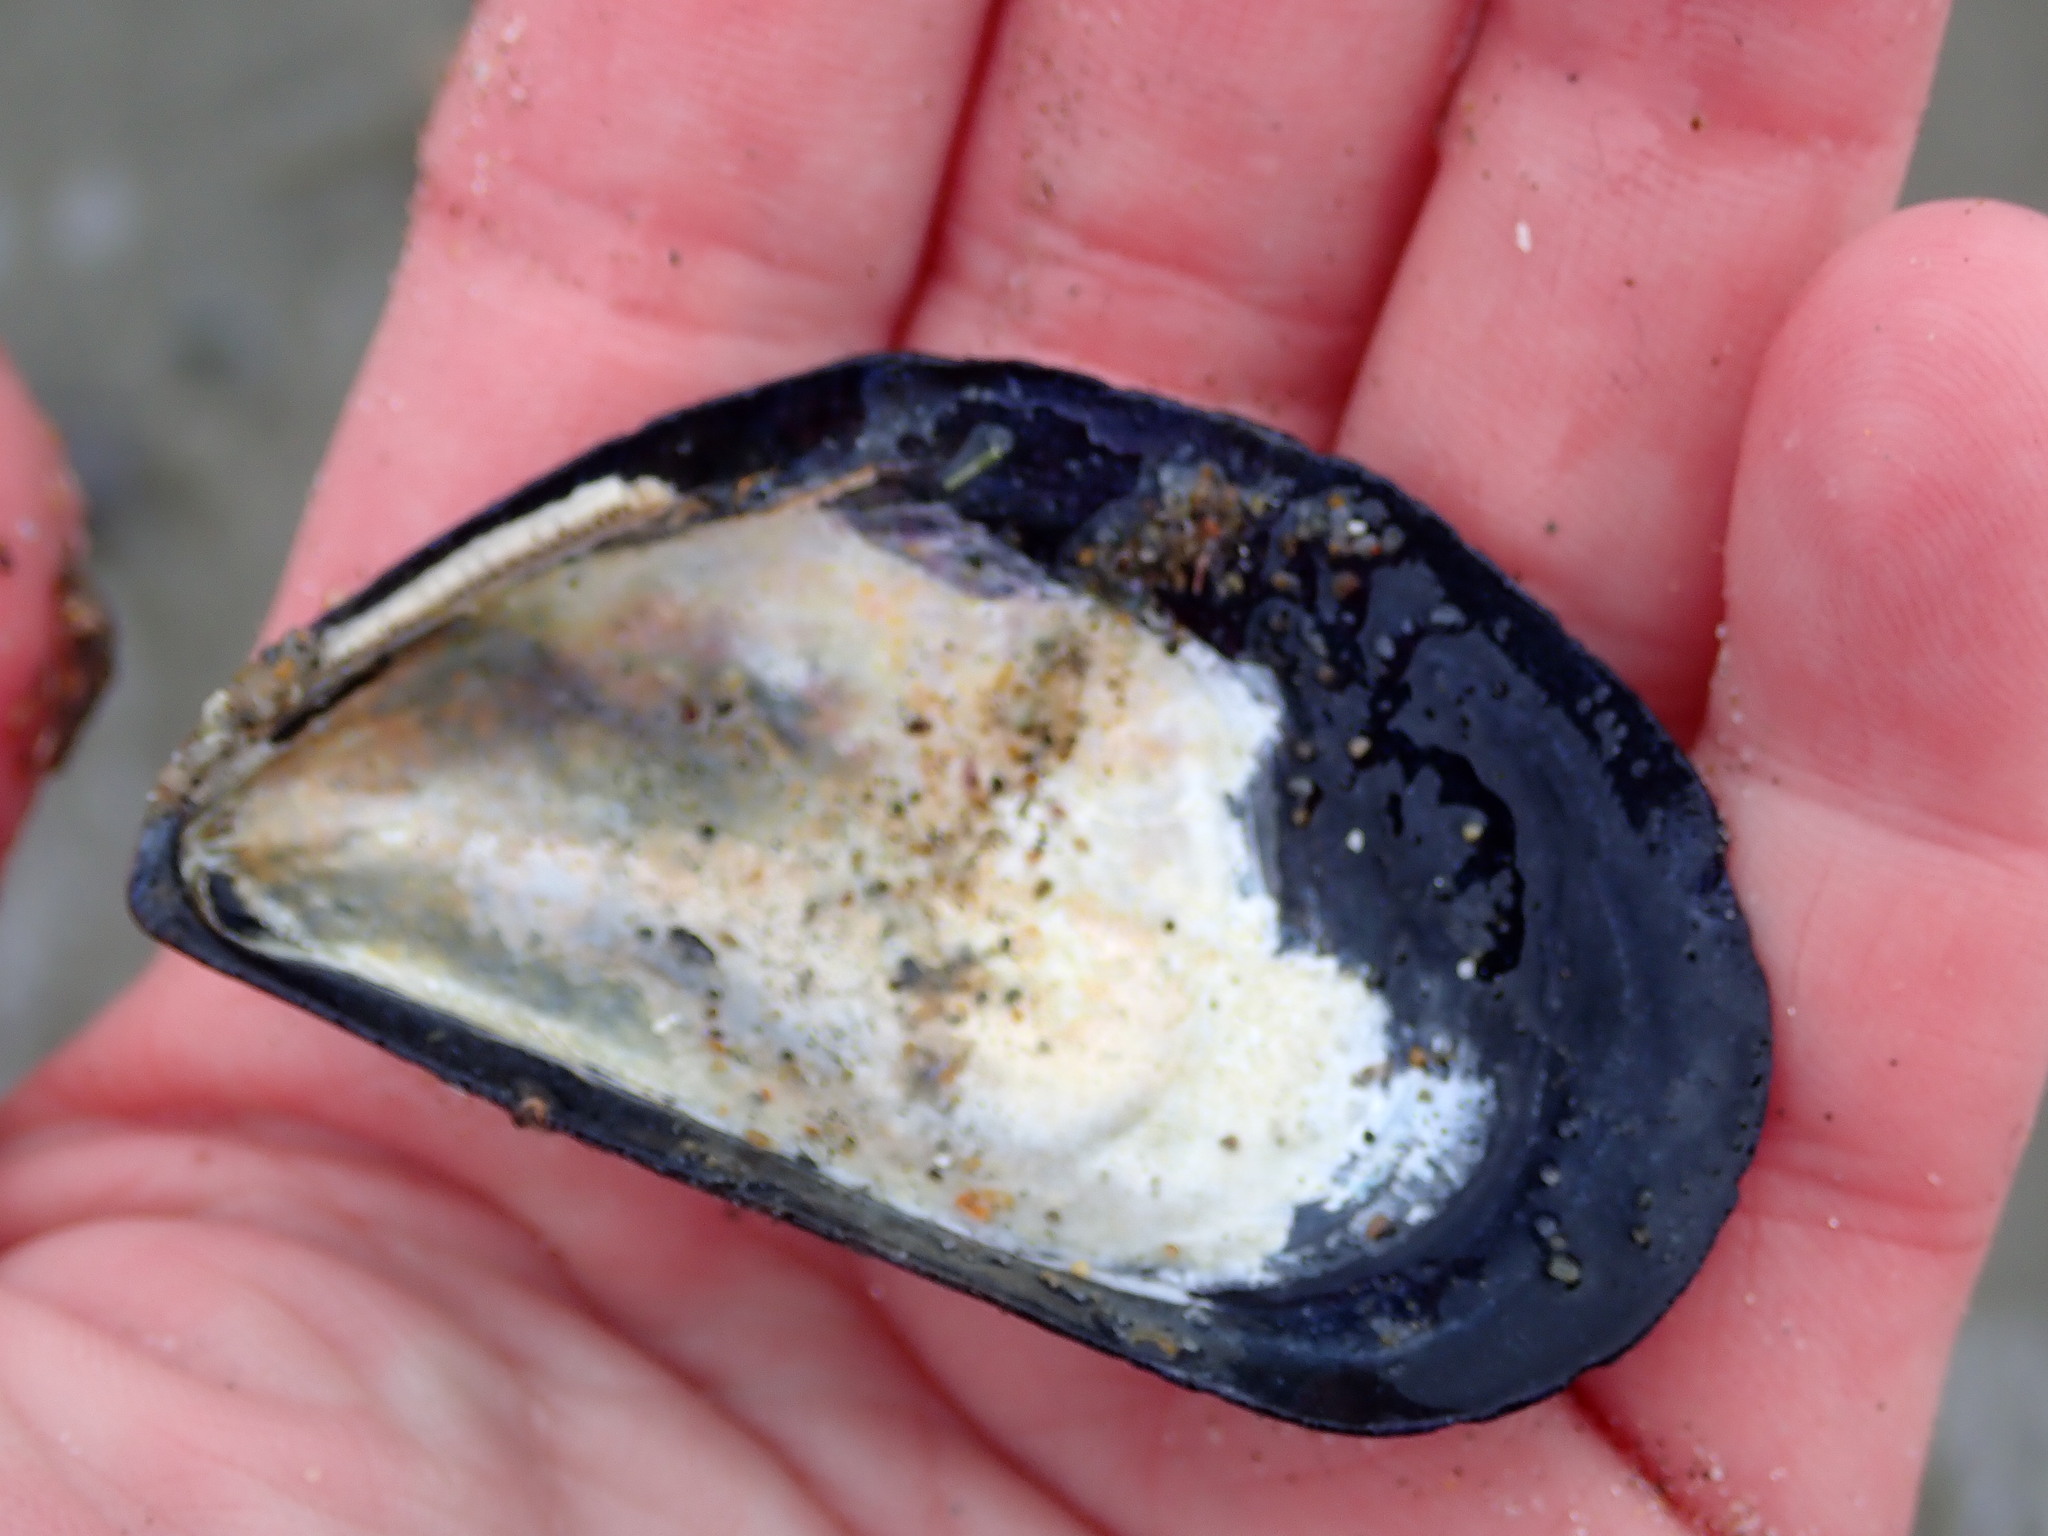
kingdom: Animalia
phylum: Mollusca
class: Bivalvia
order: Mytilida
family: Mytilidae
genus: Mytilus
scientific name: Mytilus edulis
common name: Blue mussel
